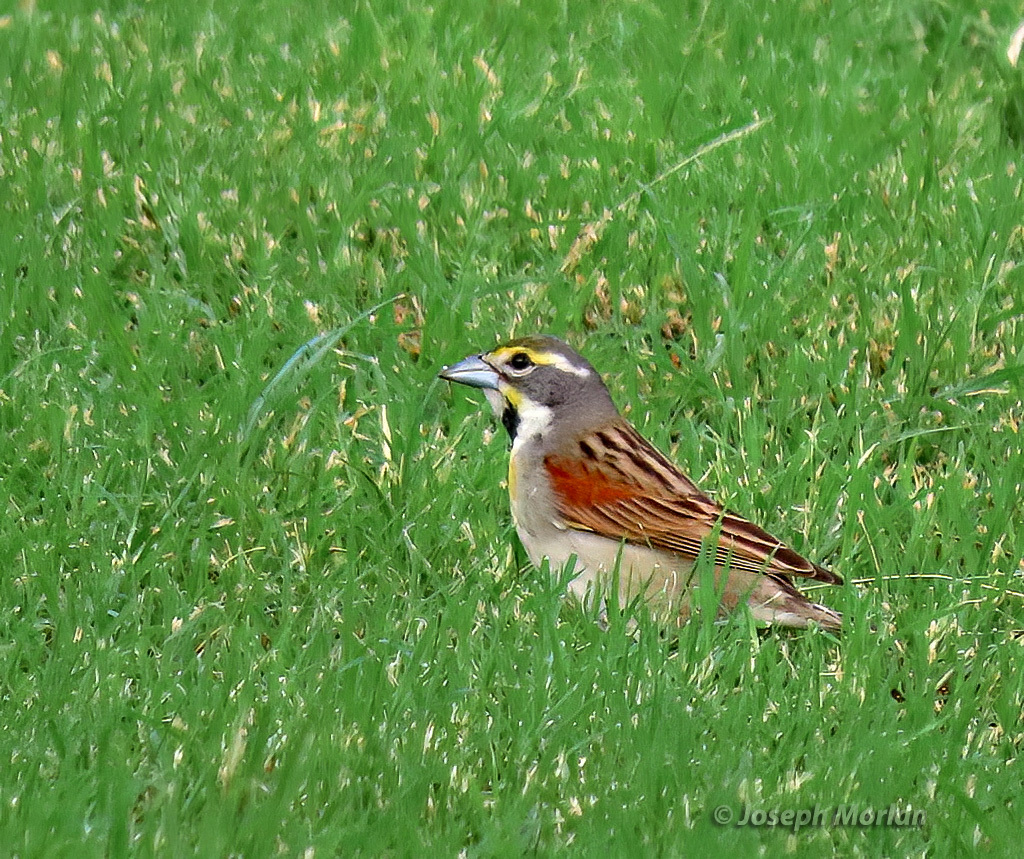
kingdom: Animalia
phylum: Chordata
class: Aves
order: Passeriformes
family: Cardinalidae
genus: Spiza
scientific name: Spiza americana
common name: Dickcissel
